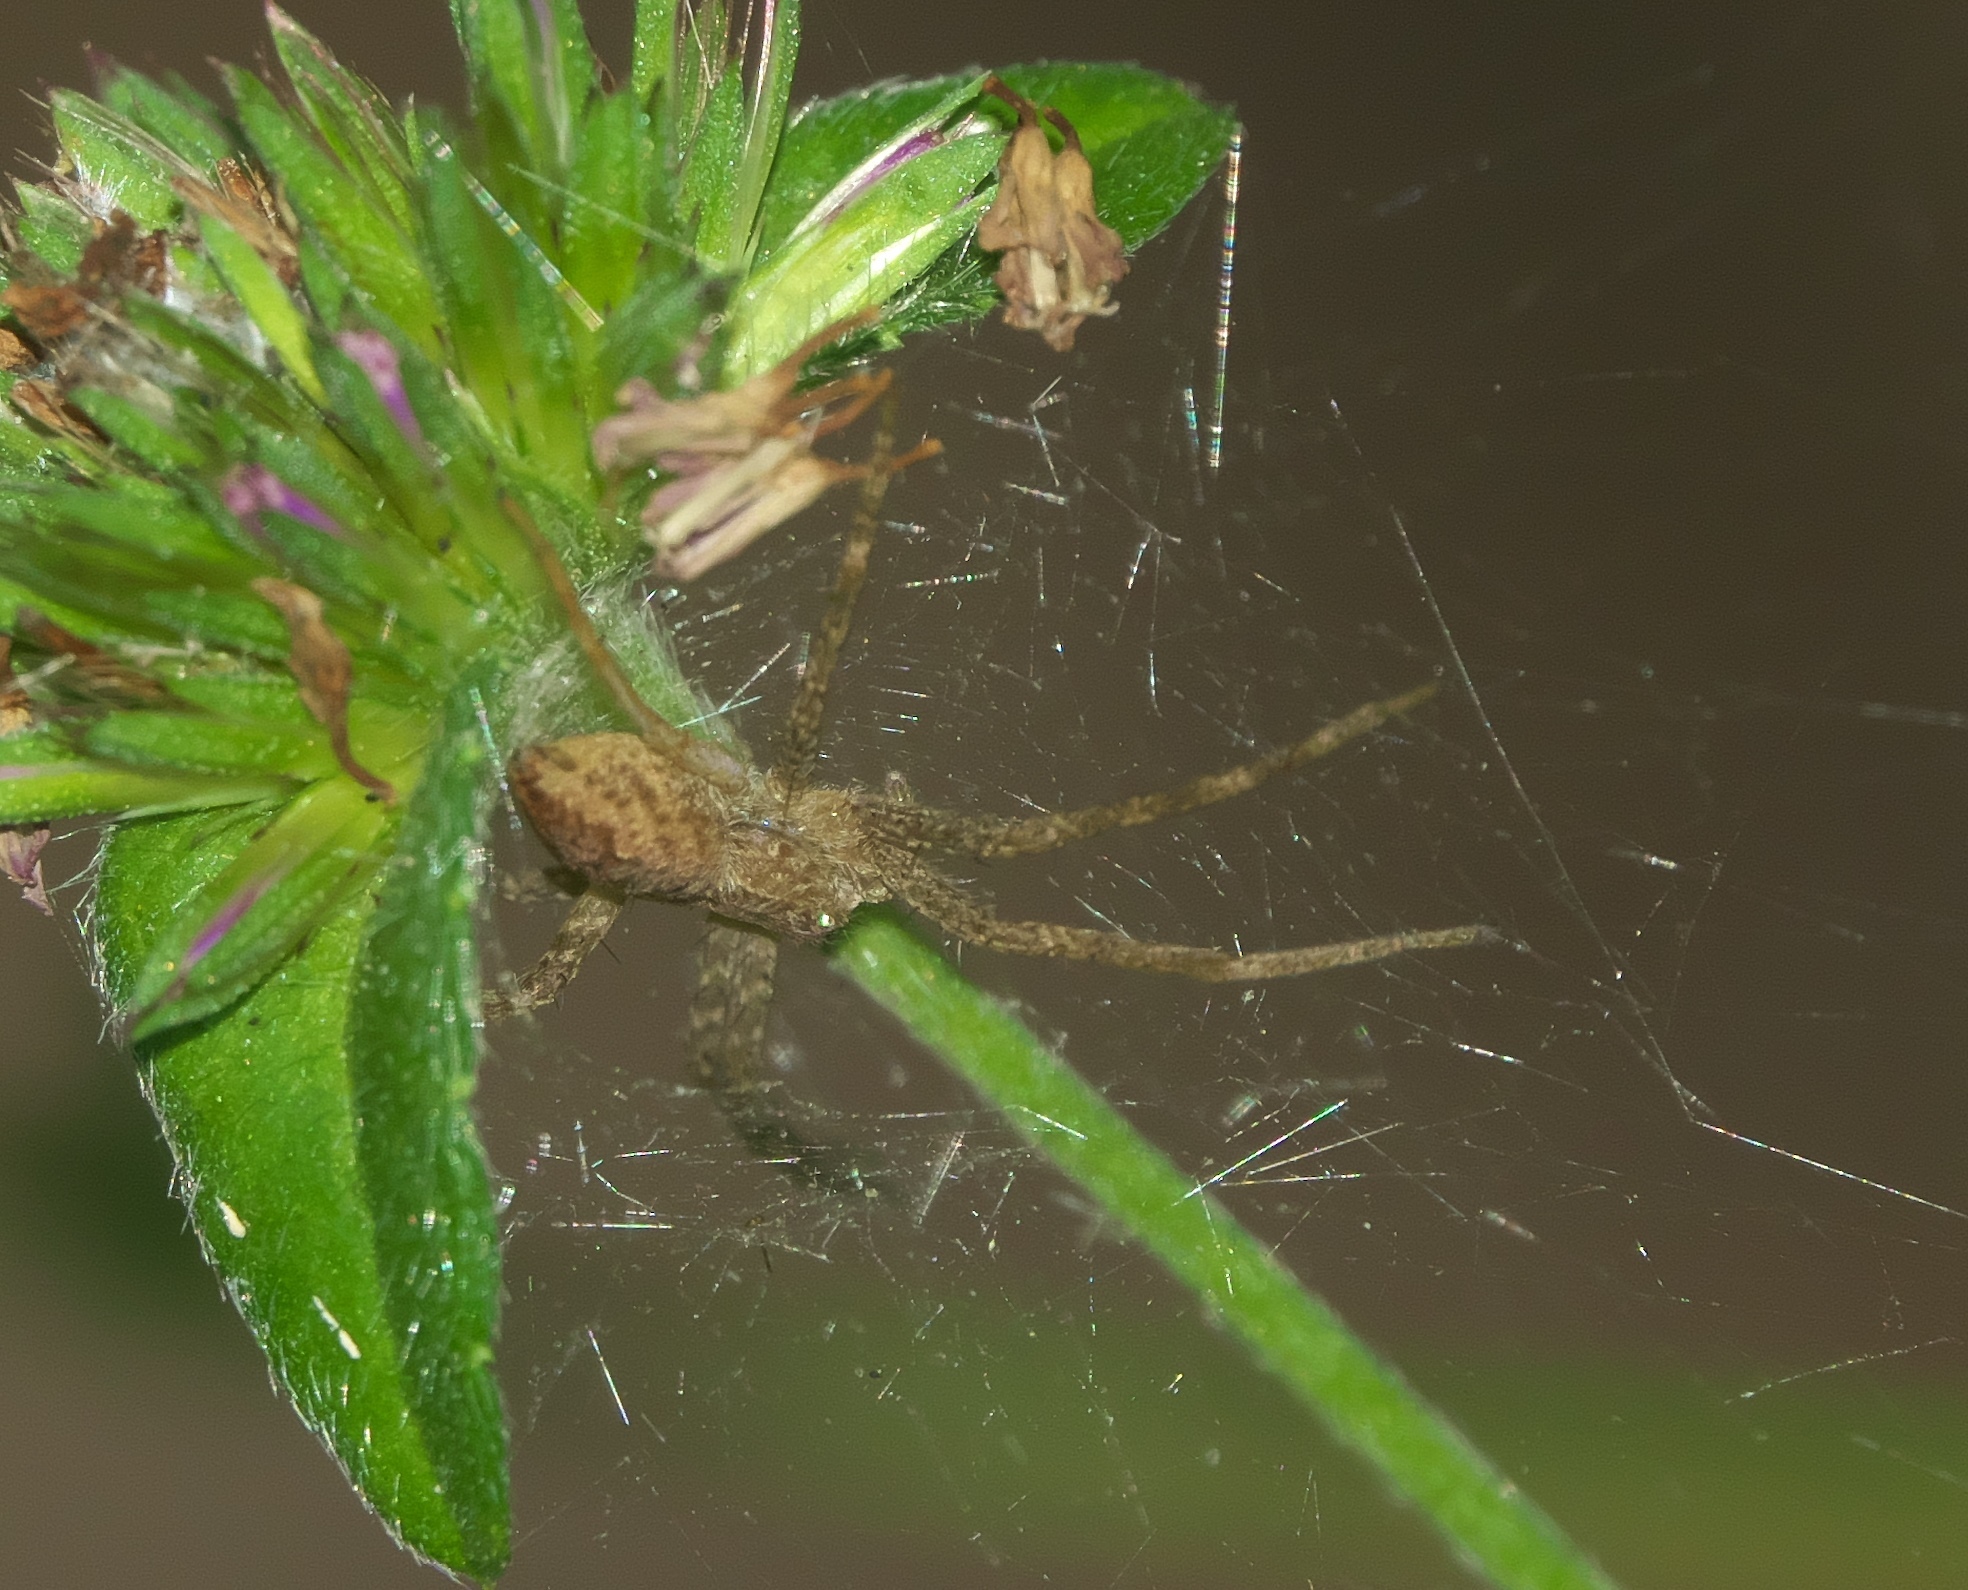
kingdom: Animalia
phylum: Arthropoda
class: Arachnida
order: Araneae
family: Pisauridae
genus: Pisaurina
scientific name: Pisaurina mira
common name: American nursery web spider
